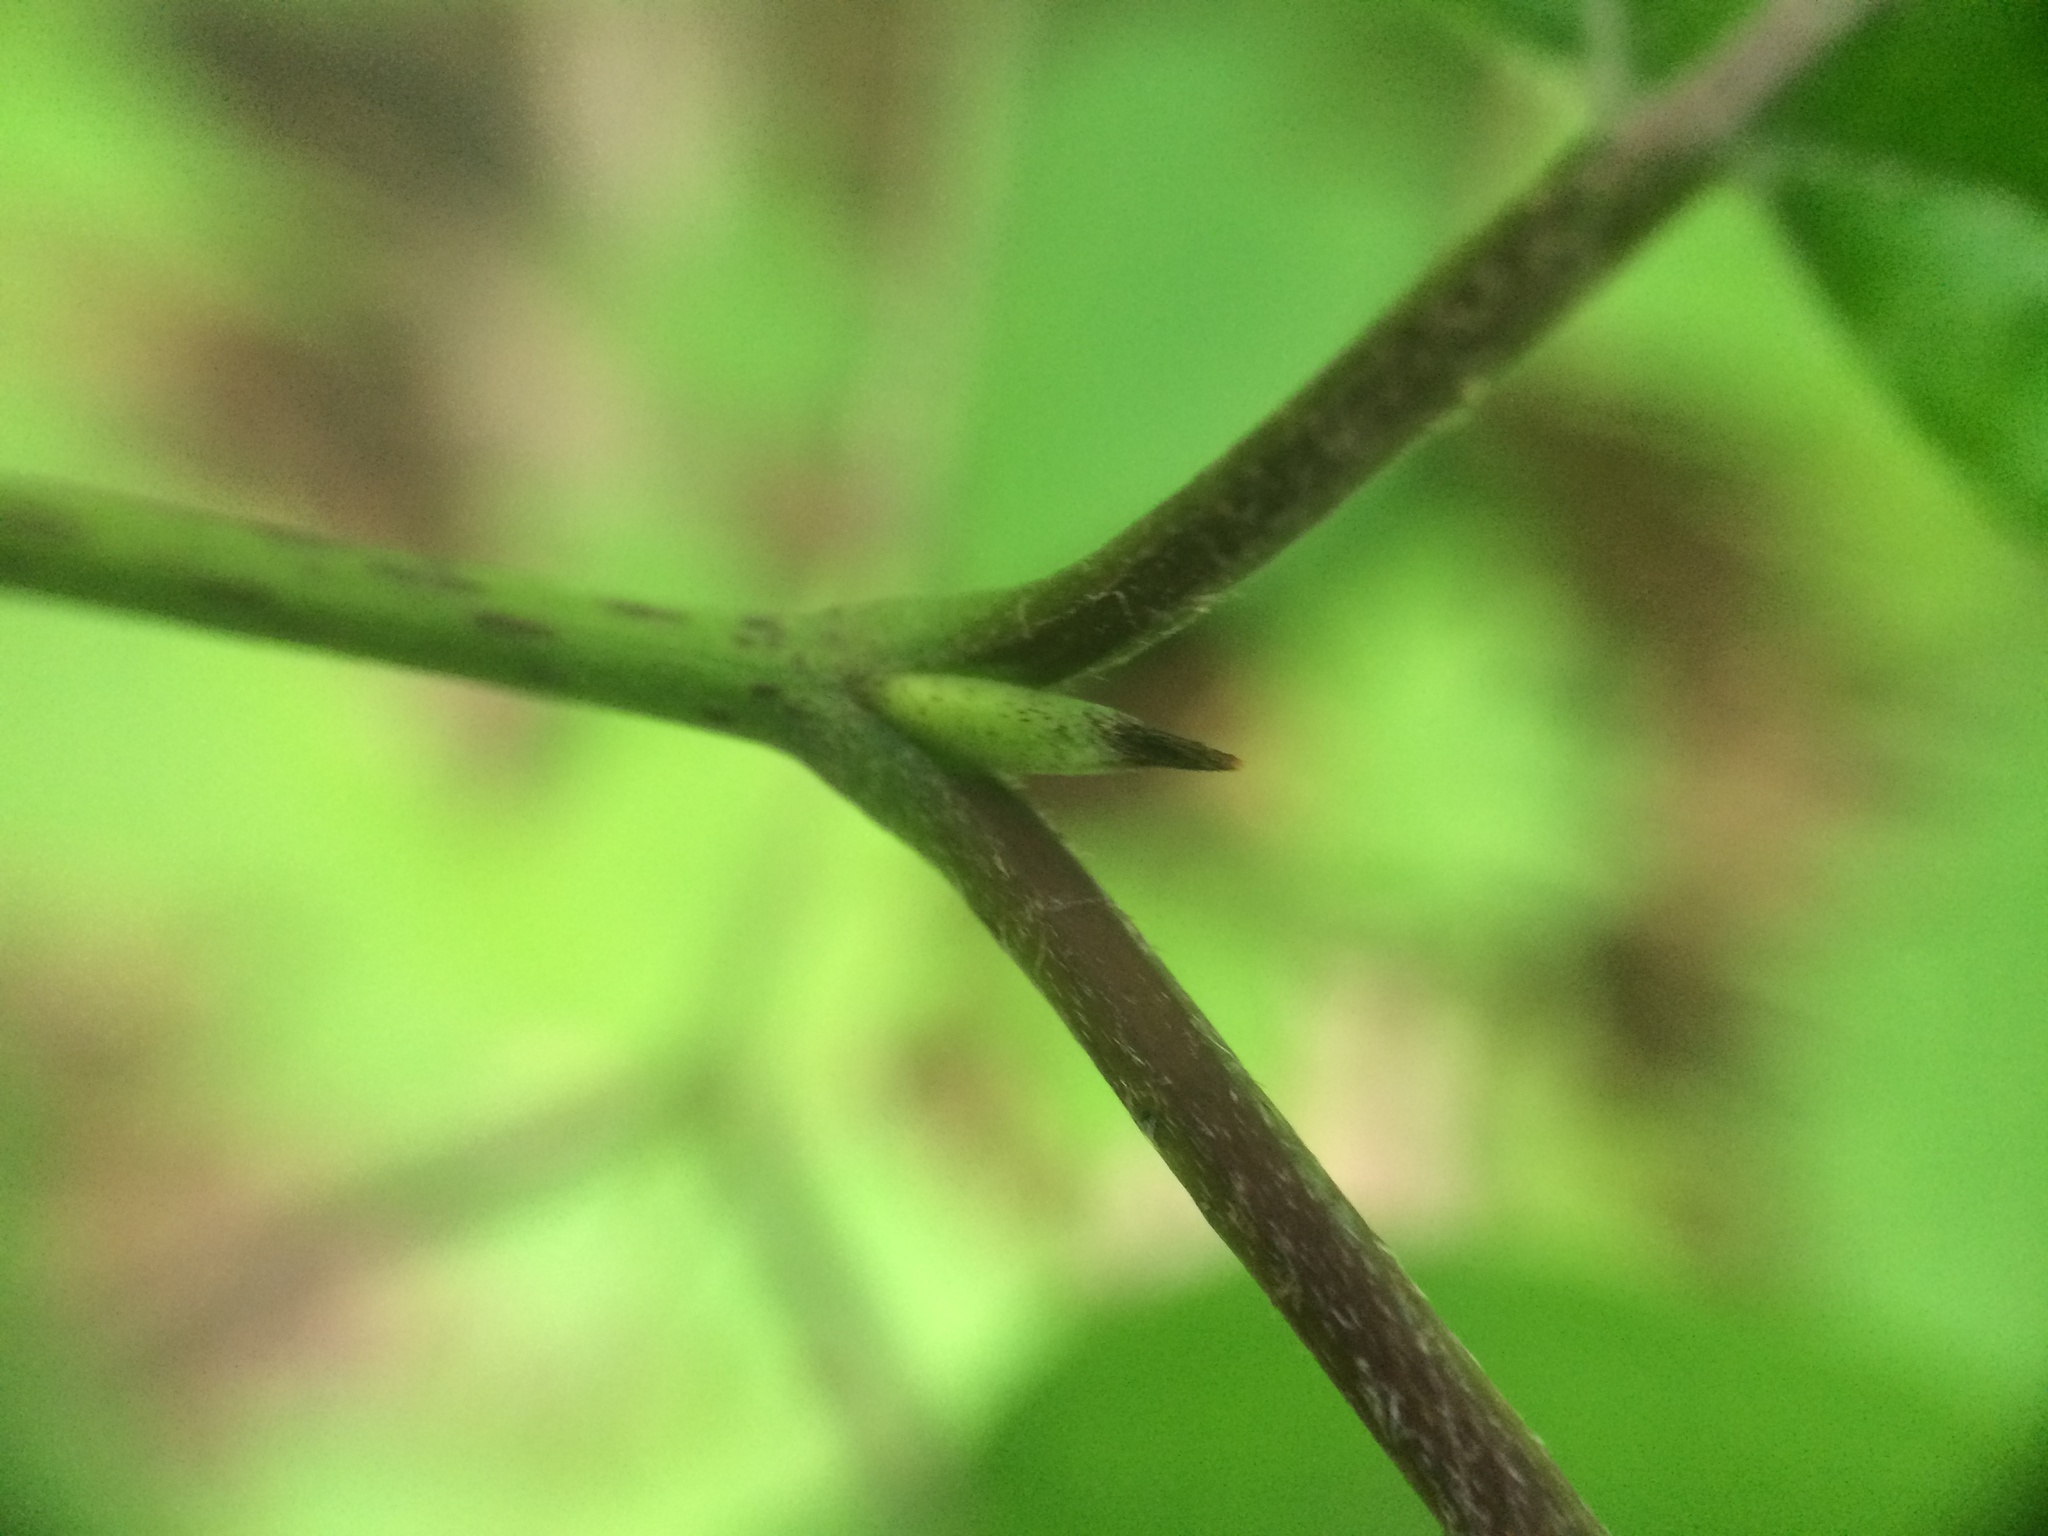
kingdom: Plantae
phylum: Tracheophyta
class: Magnoliopsida
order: Cornales
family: Cornaceae
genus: Cornus
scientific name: Cornus rugosa
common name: Round-leaf dogwood
